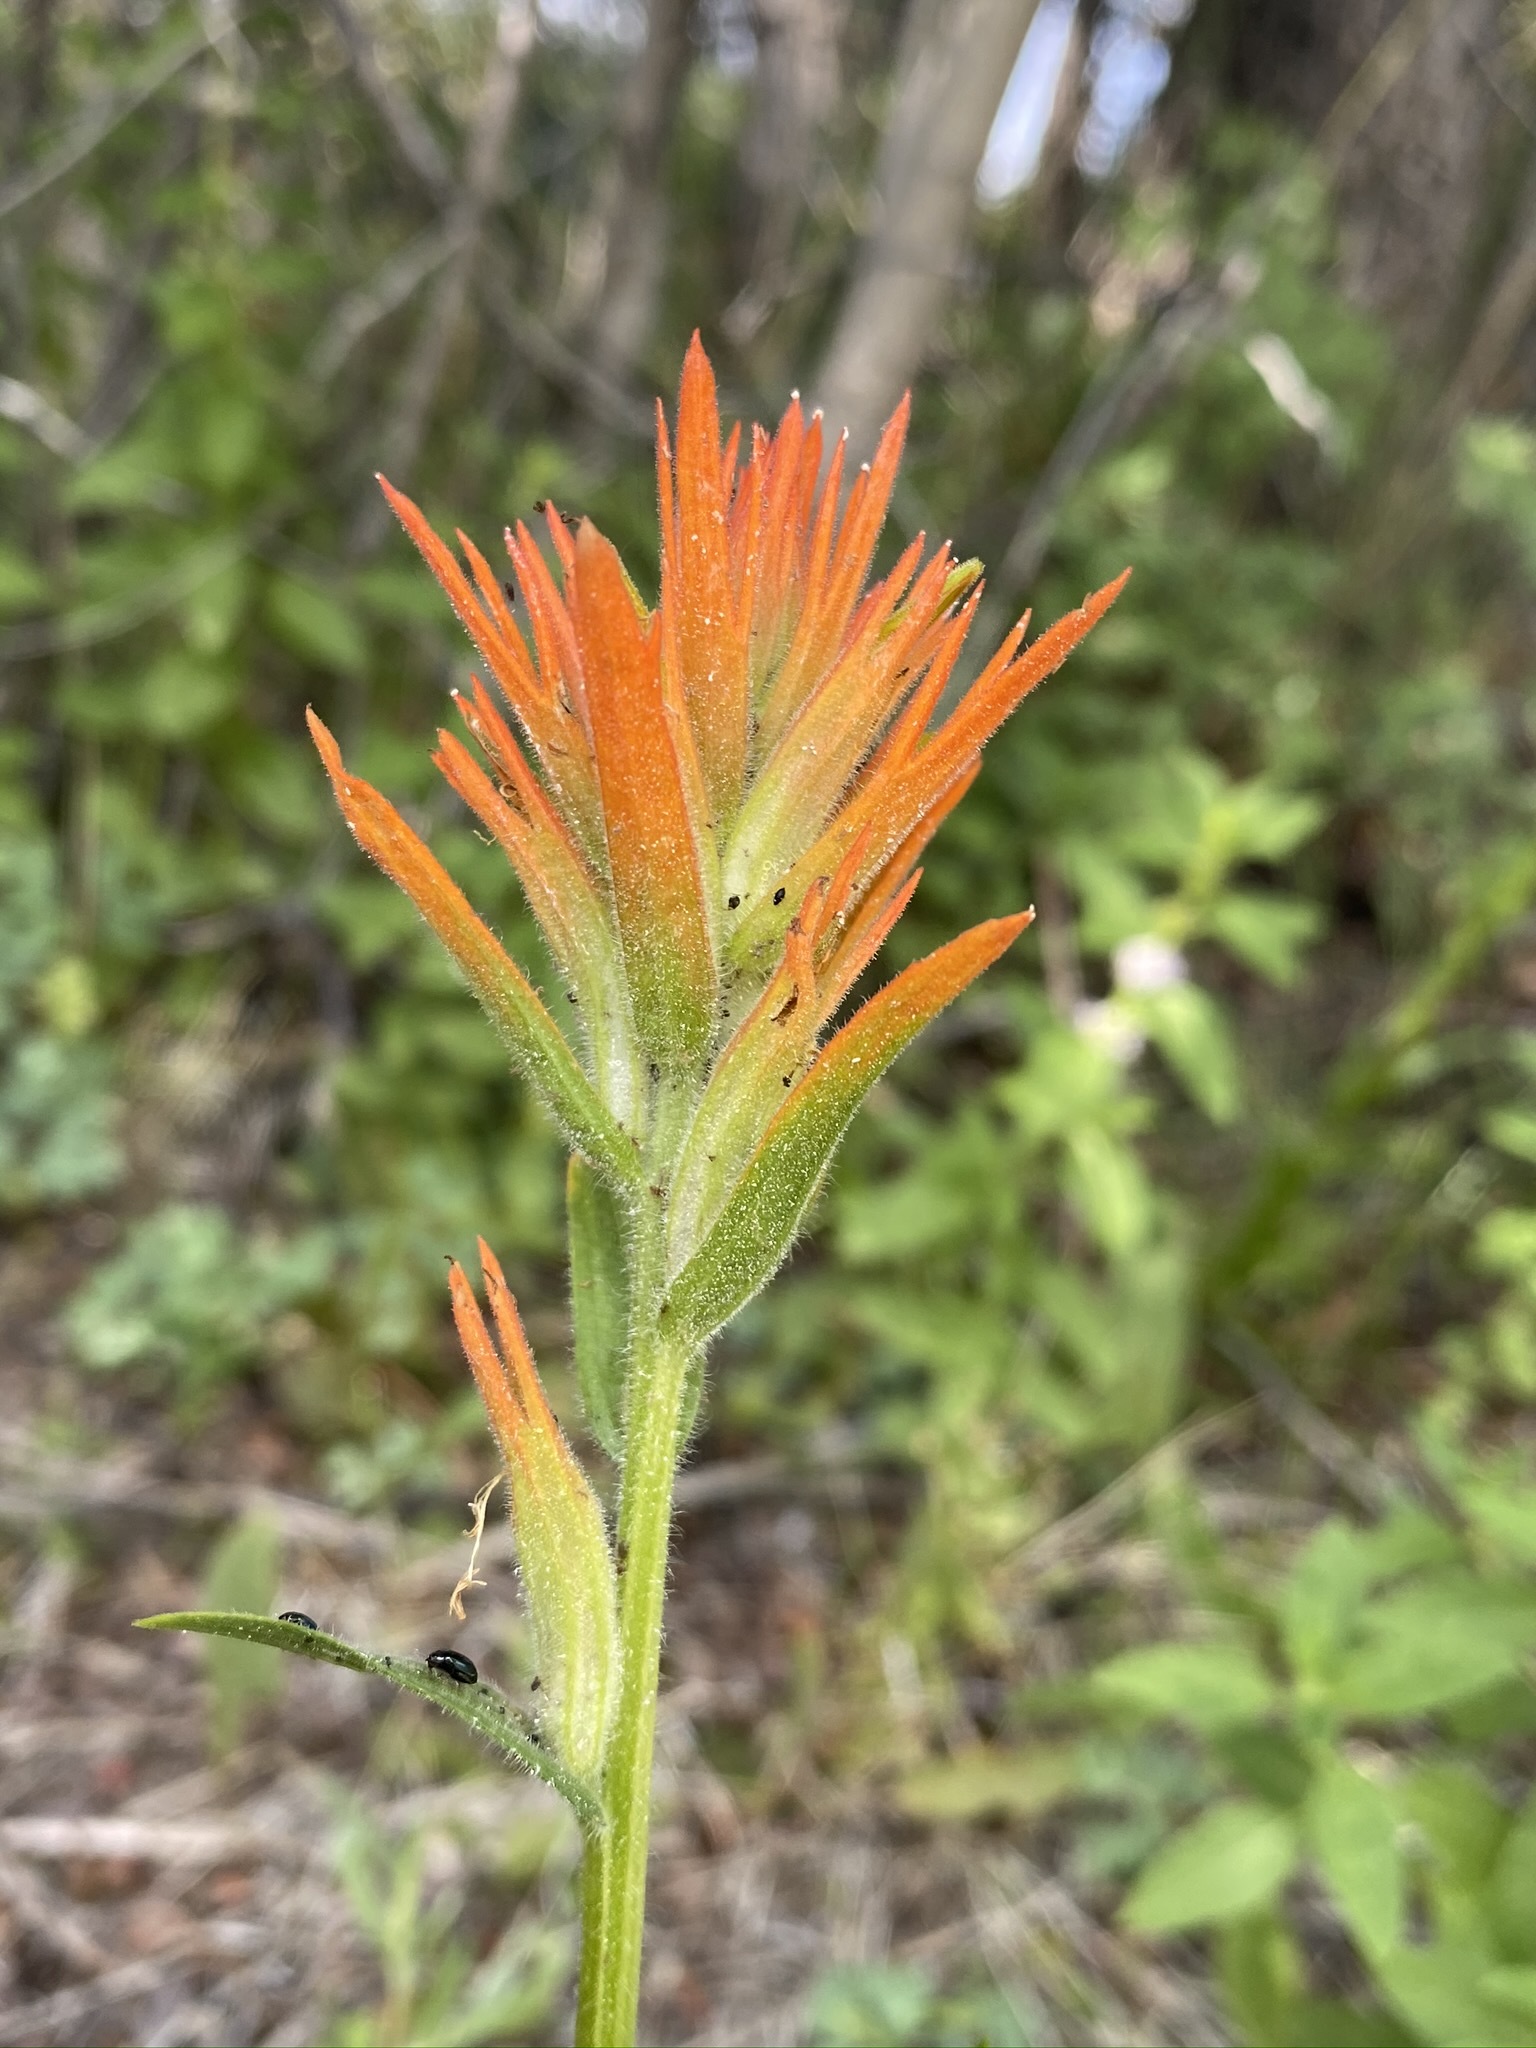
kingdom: Plantae
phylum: Tracheophyta
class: Magnoliopsida
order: Lamiales
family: Orobanchaceae
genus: Castilleja
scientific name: Castilleja miniata
